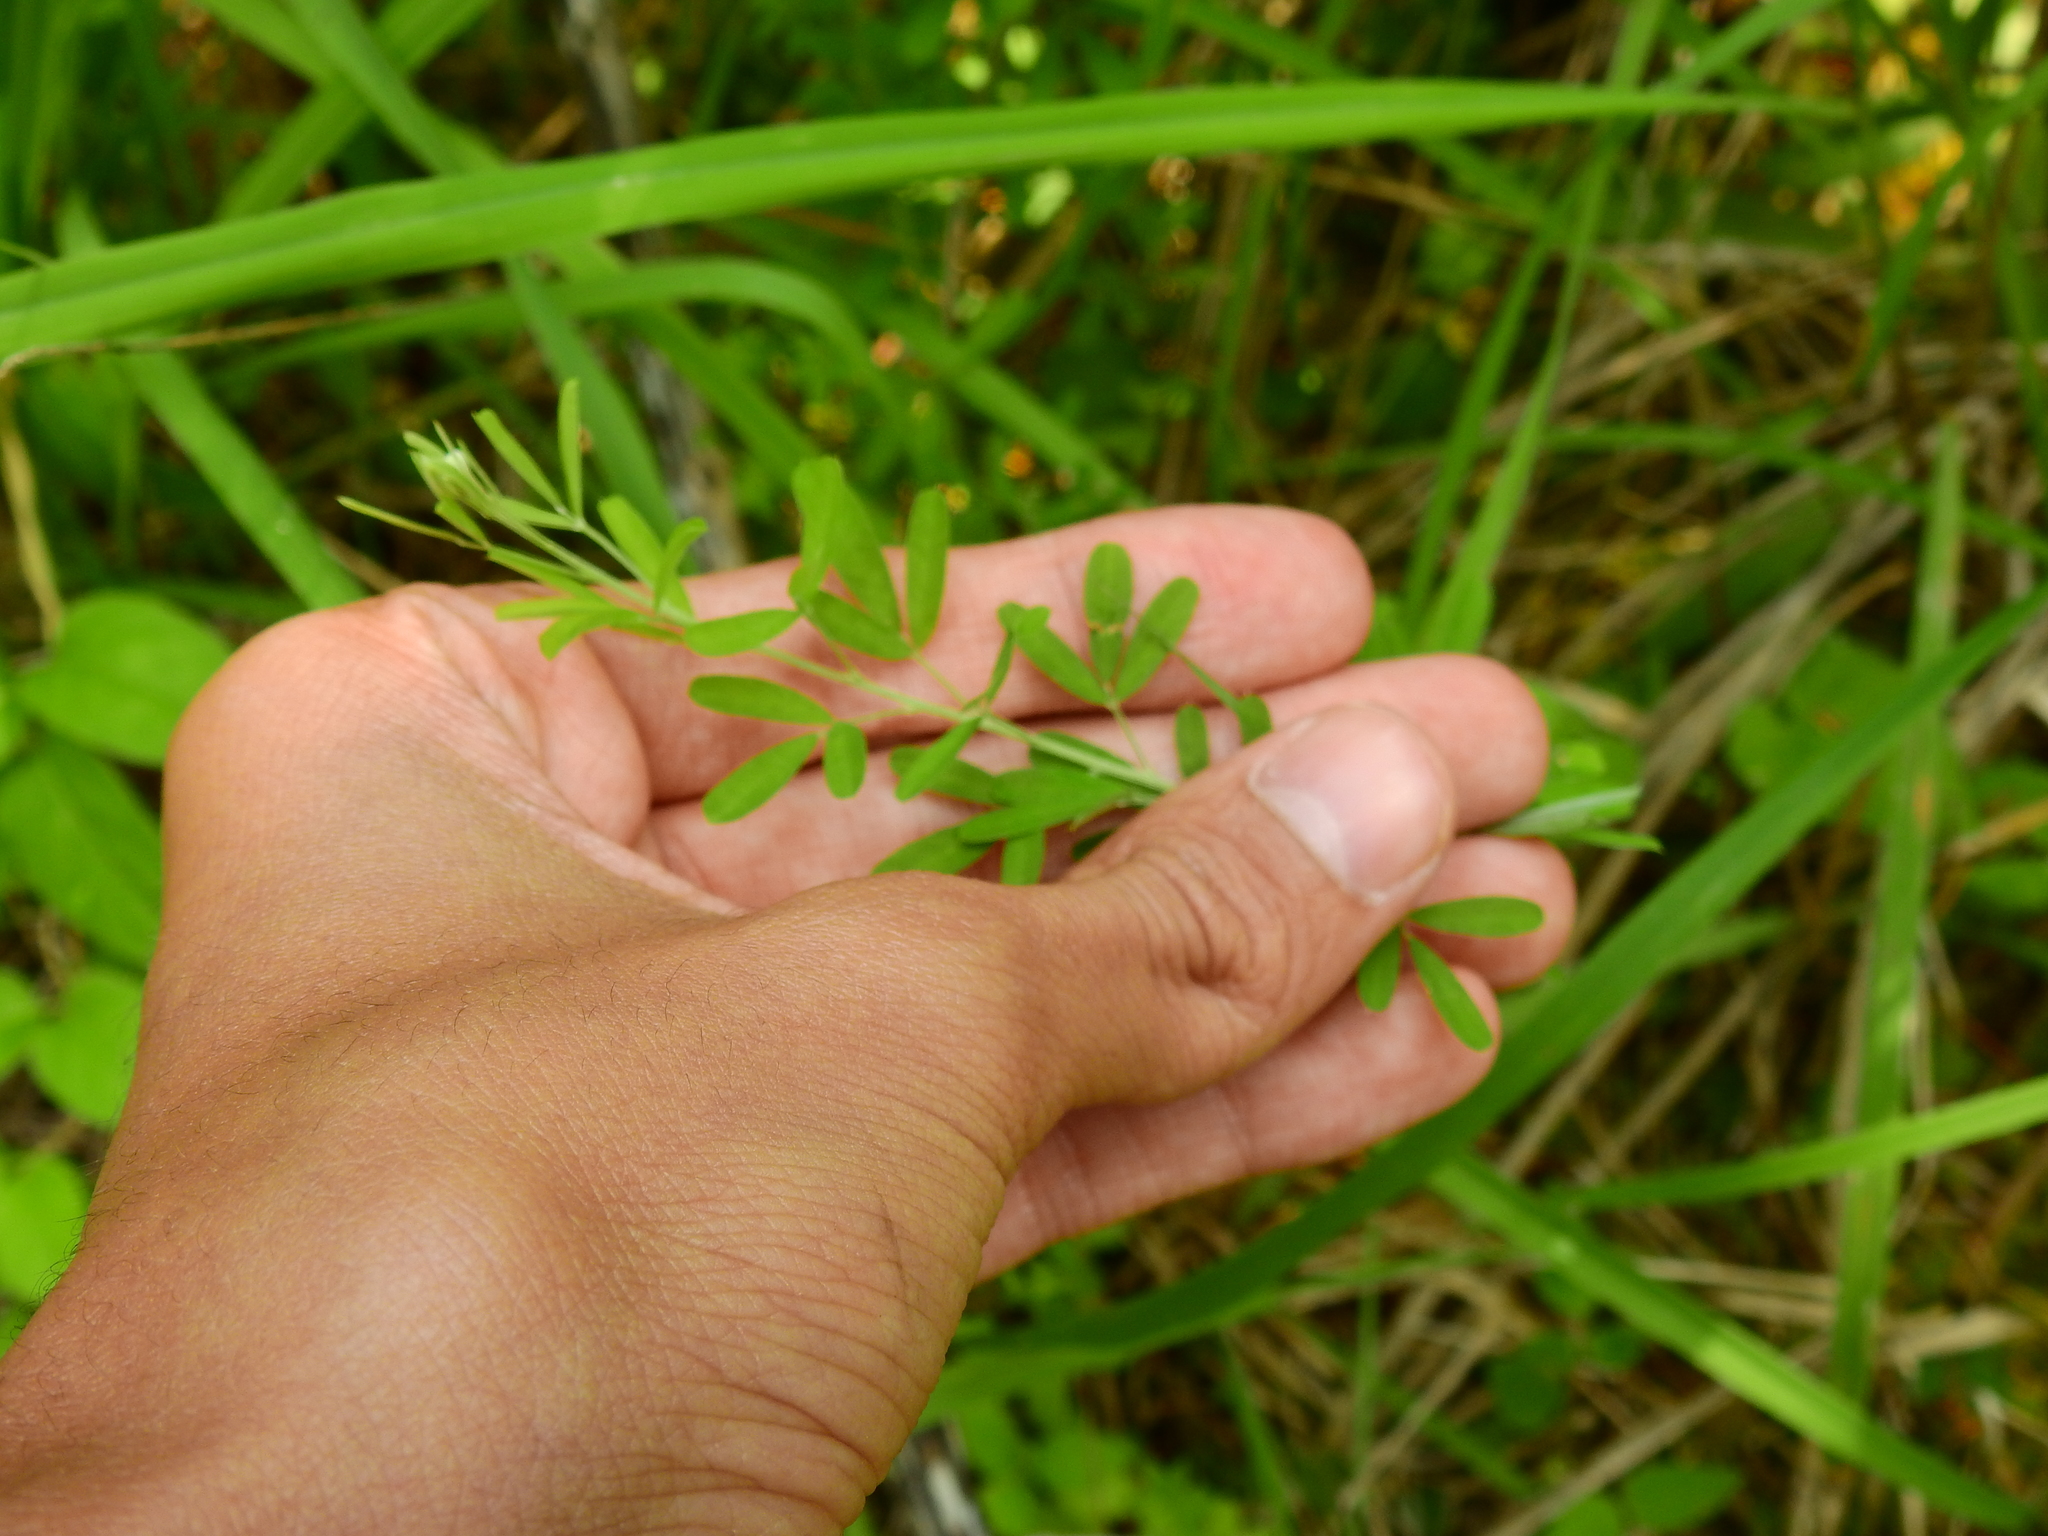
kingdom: Plantae
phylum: Tracheophyta
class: Magnoliopsida
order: Fabales
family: Fabaceae
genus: Lespedeza
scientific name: Lespedeza cuneata
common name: Chinese bush-clover
